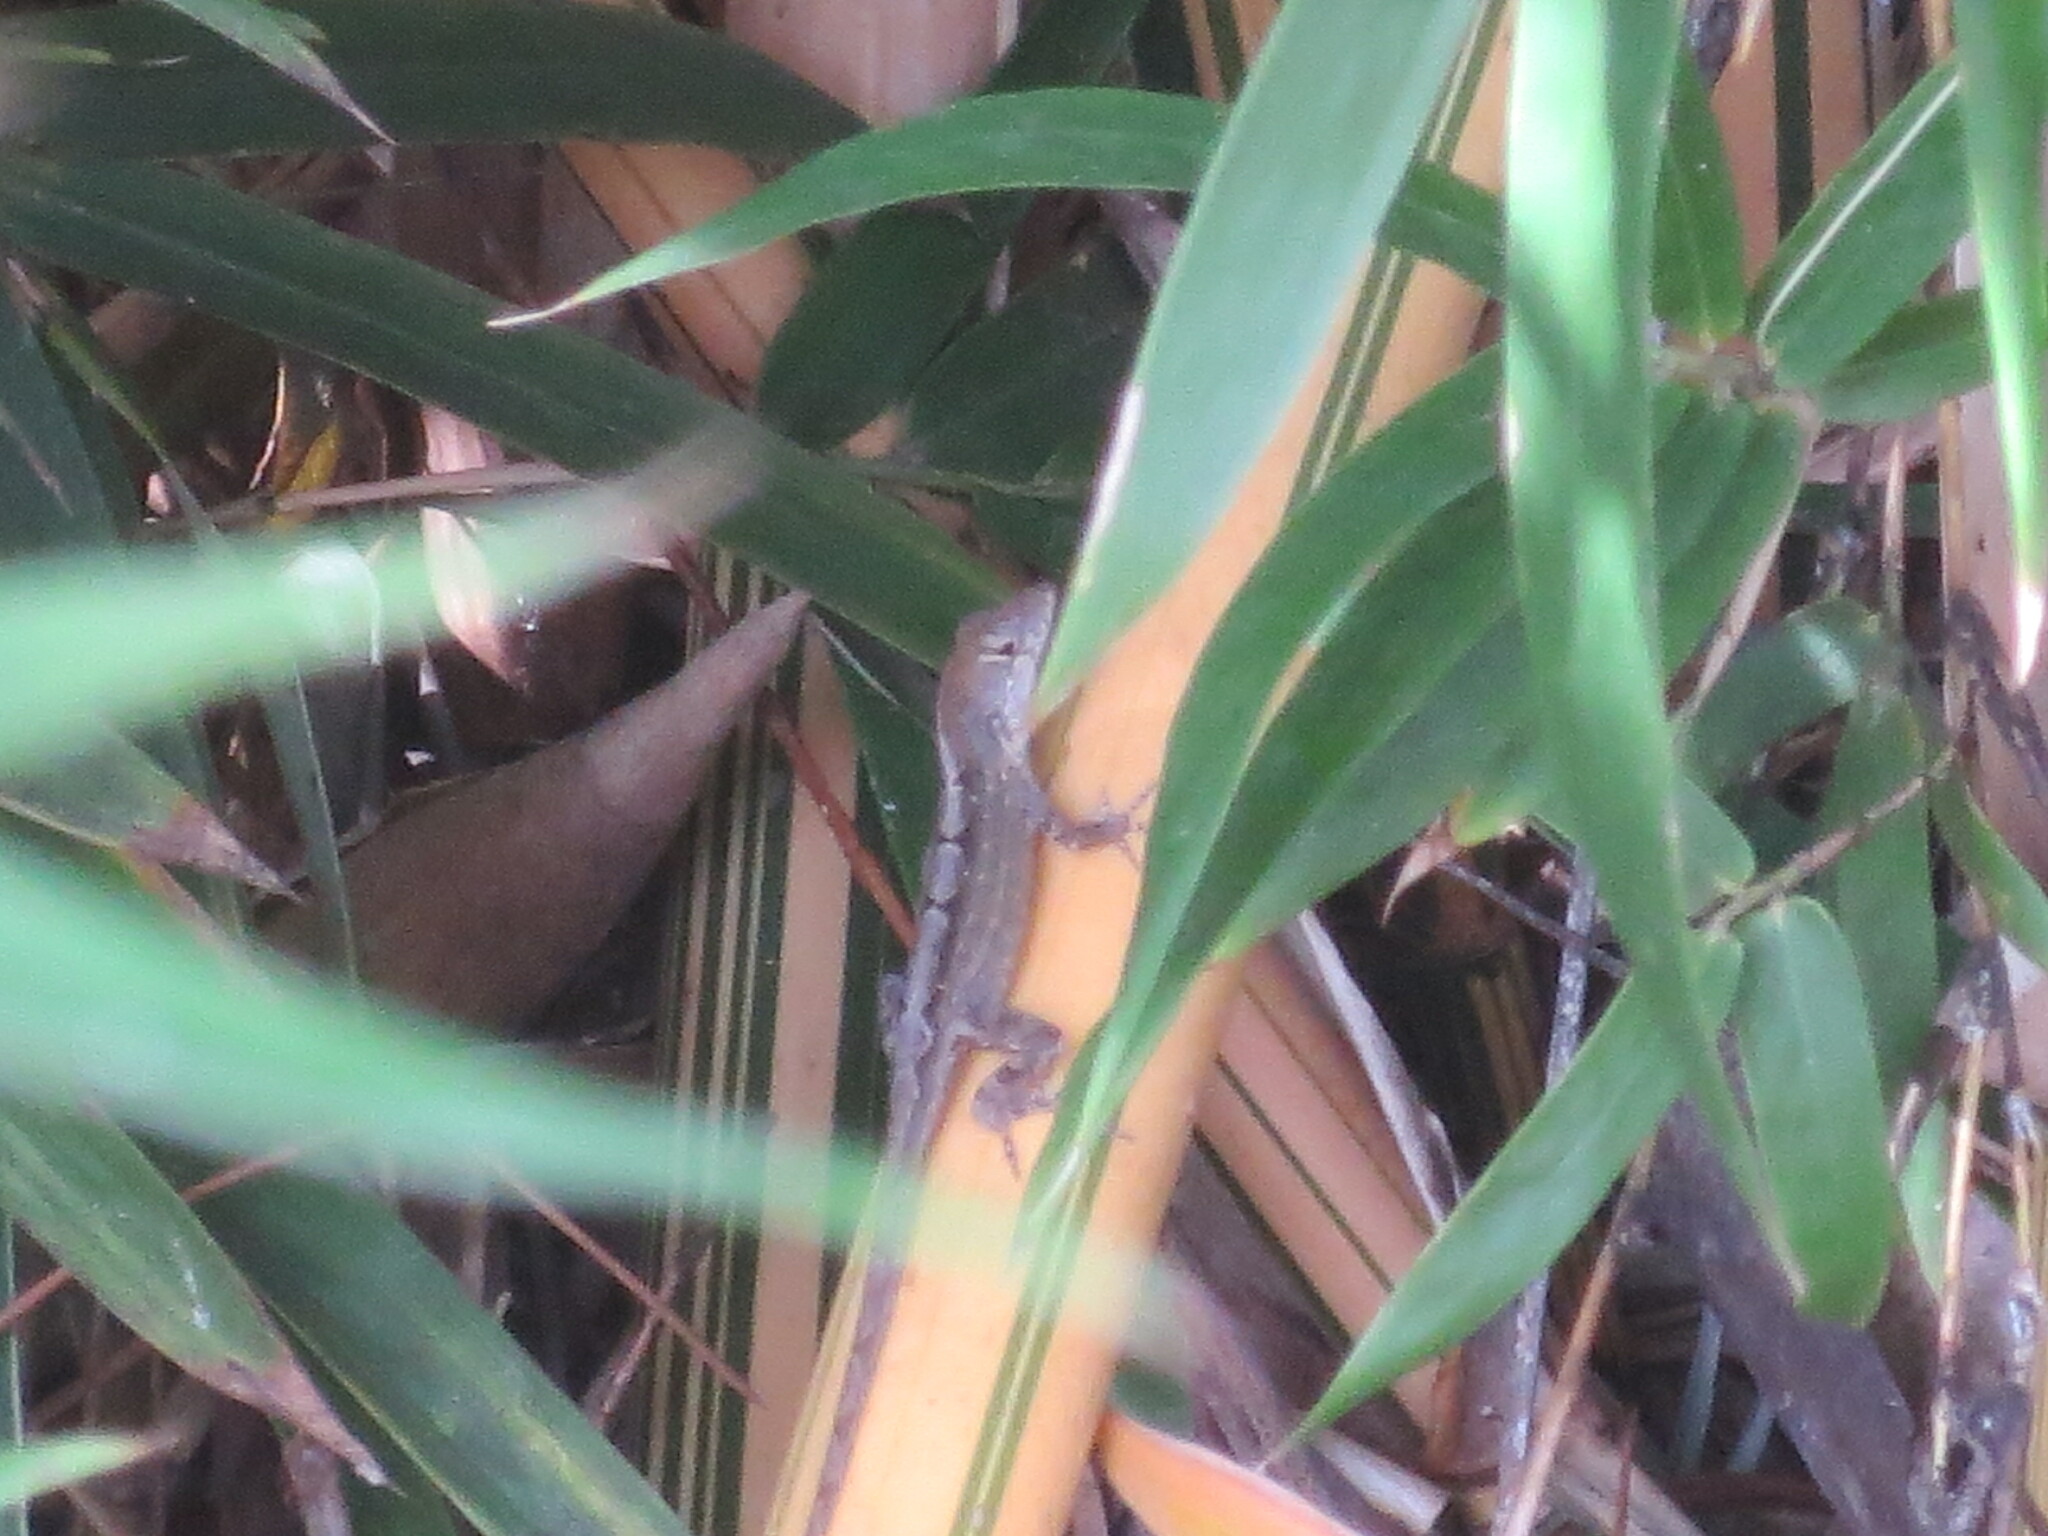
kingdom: Animalia
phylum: Chordata
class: Squamata
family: Dactyloidae
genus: Anolis
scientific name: Anolis sagrei
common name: Brown anole
